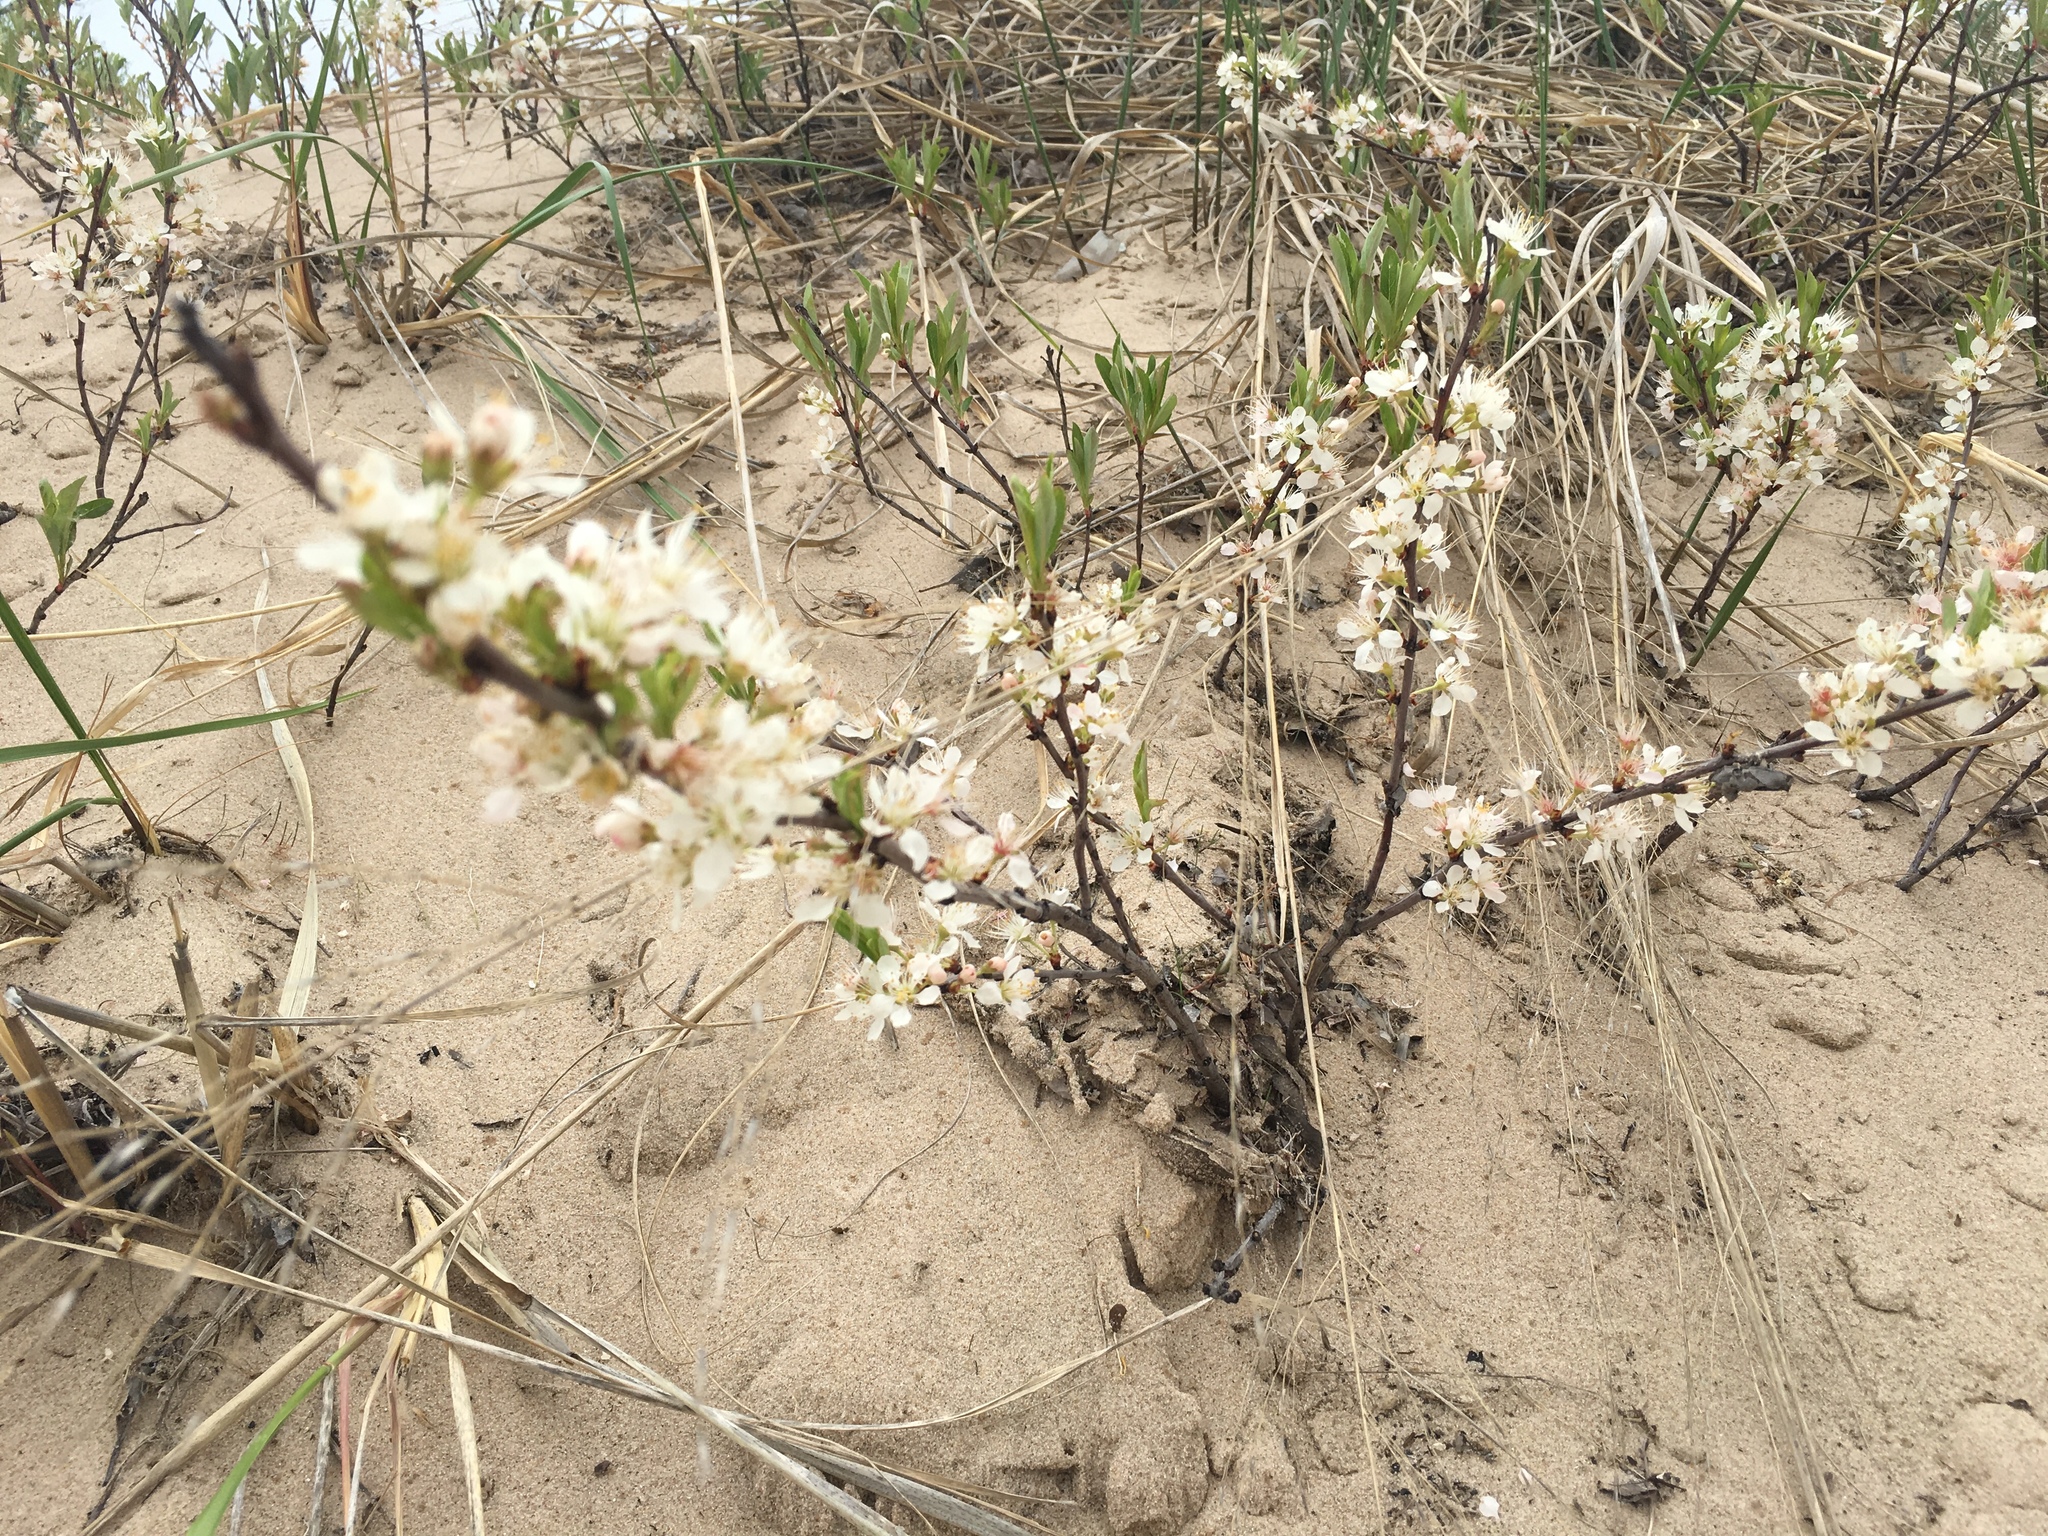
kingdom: Plantae
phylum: Tracheophyta
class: Magnoliopsida
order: Rosales
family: Rosaceae
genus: Prunus
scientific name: Prunus pumila
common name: Dwarf cherry
